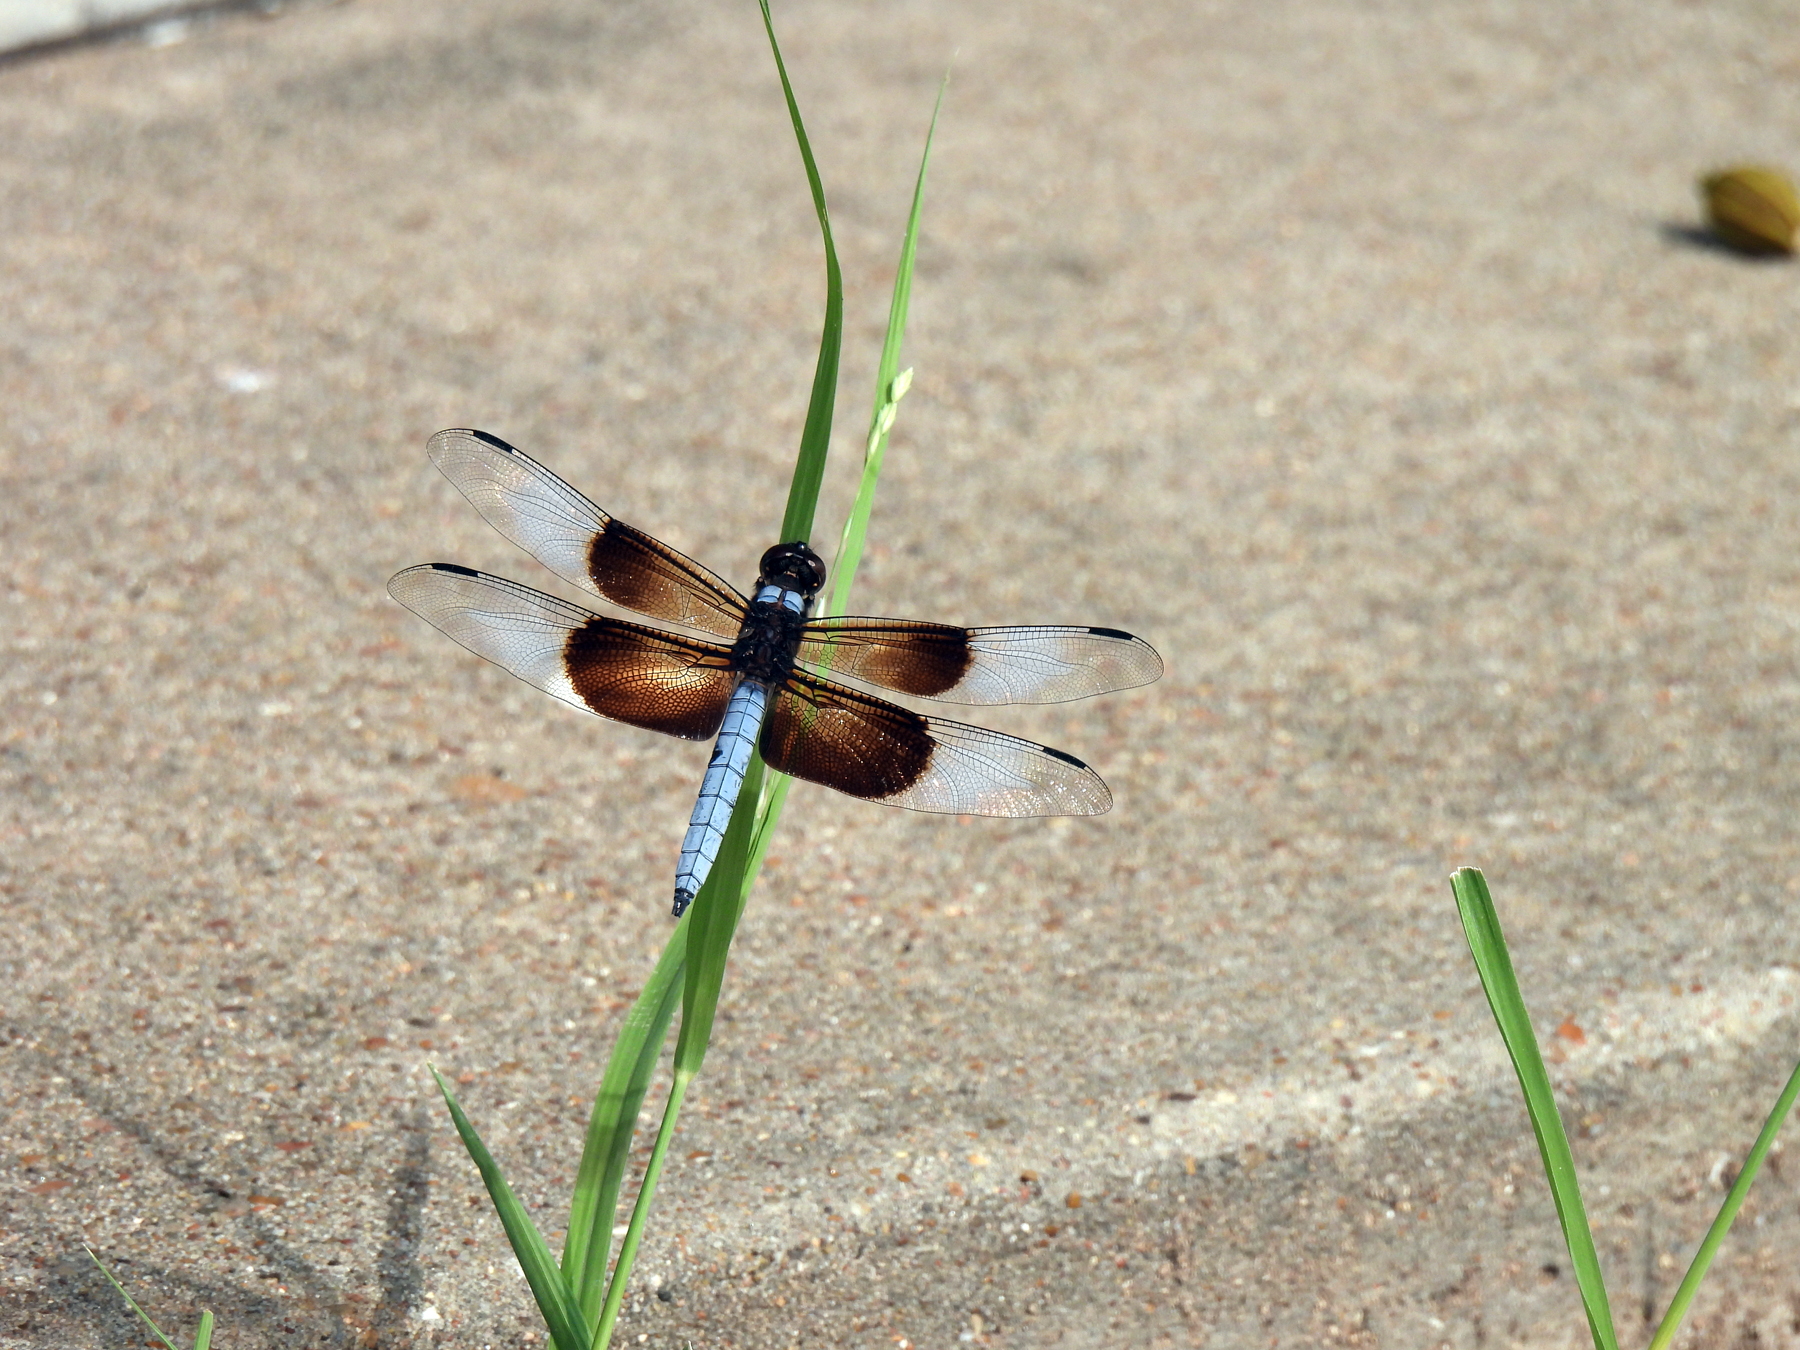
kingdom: Animalia
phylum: Arthropoda
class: Insecta
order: Odonata
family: Libellulidae
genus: Libellula
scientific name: Libellula luctuosa
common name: Widow skimmer
